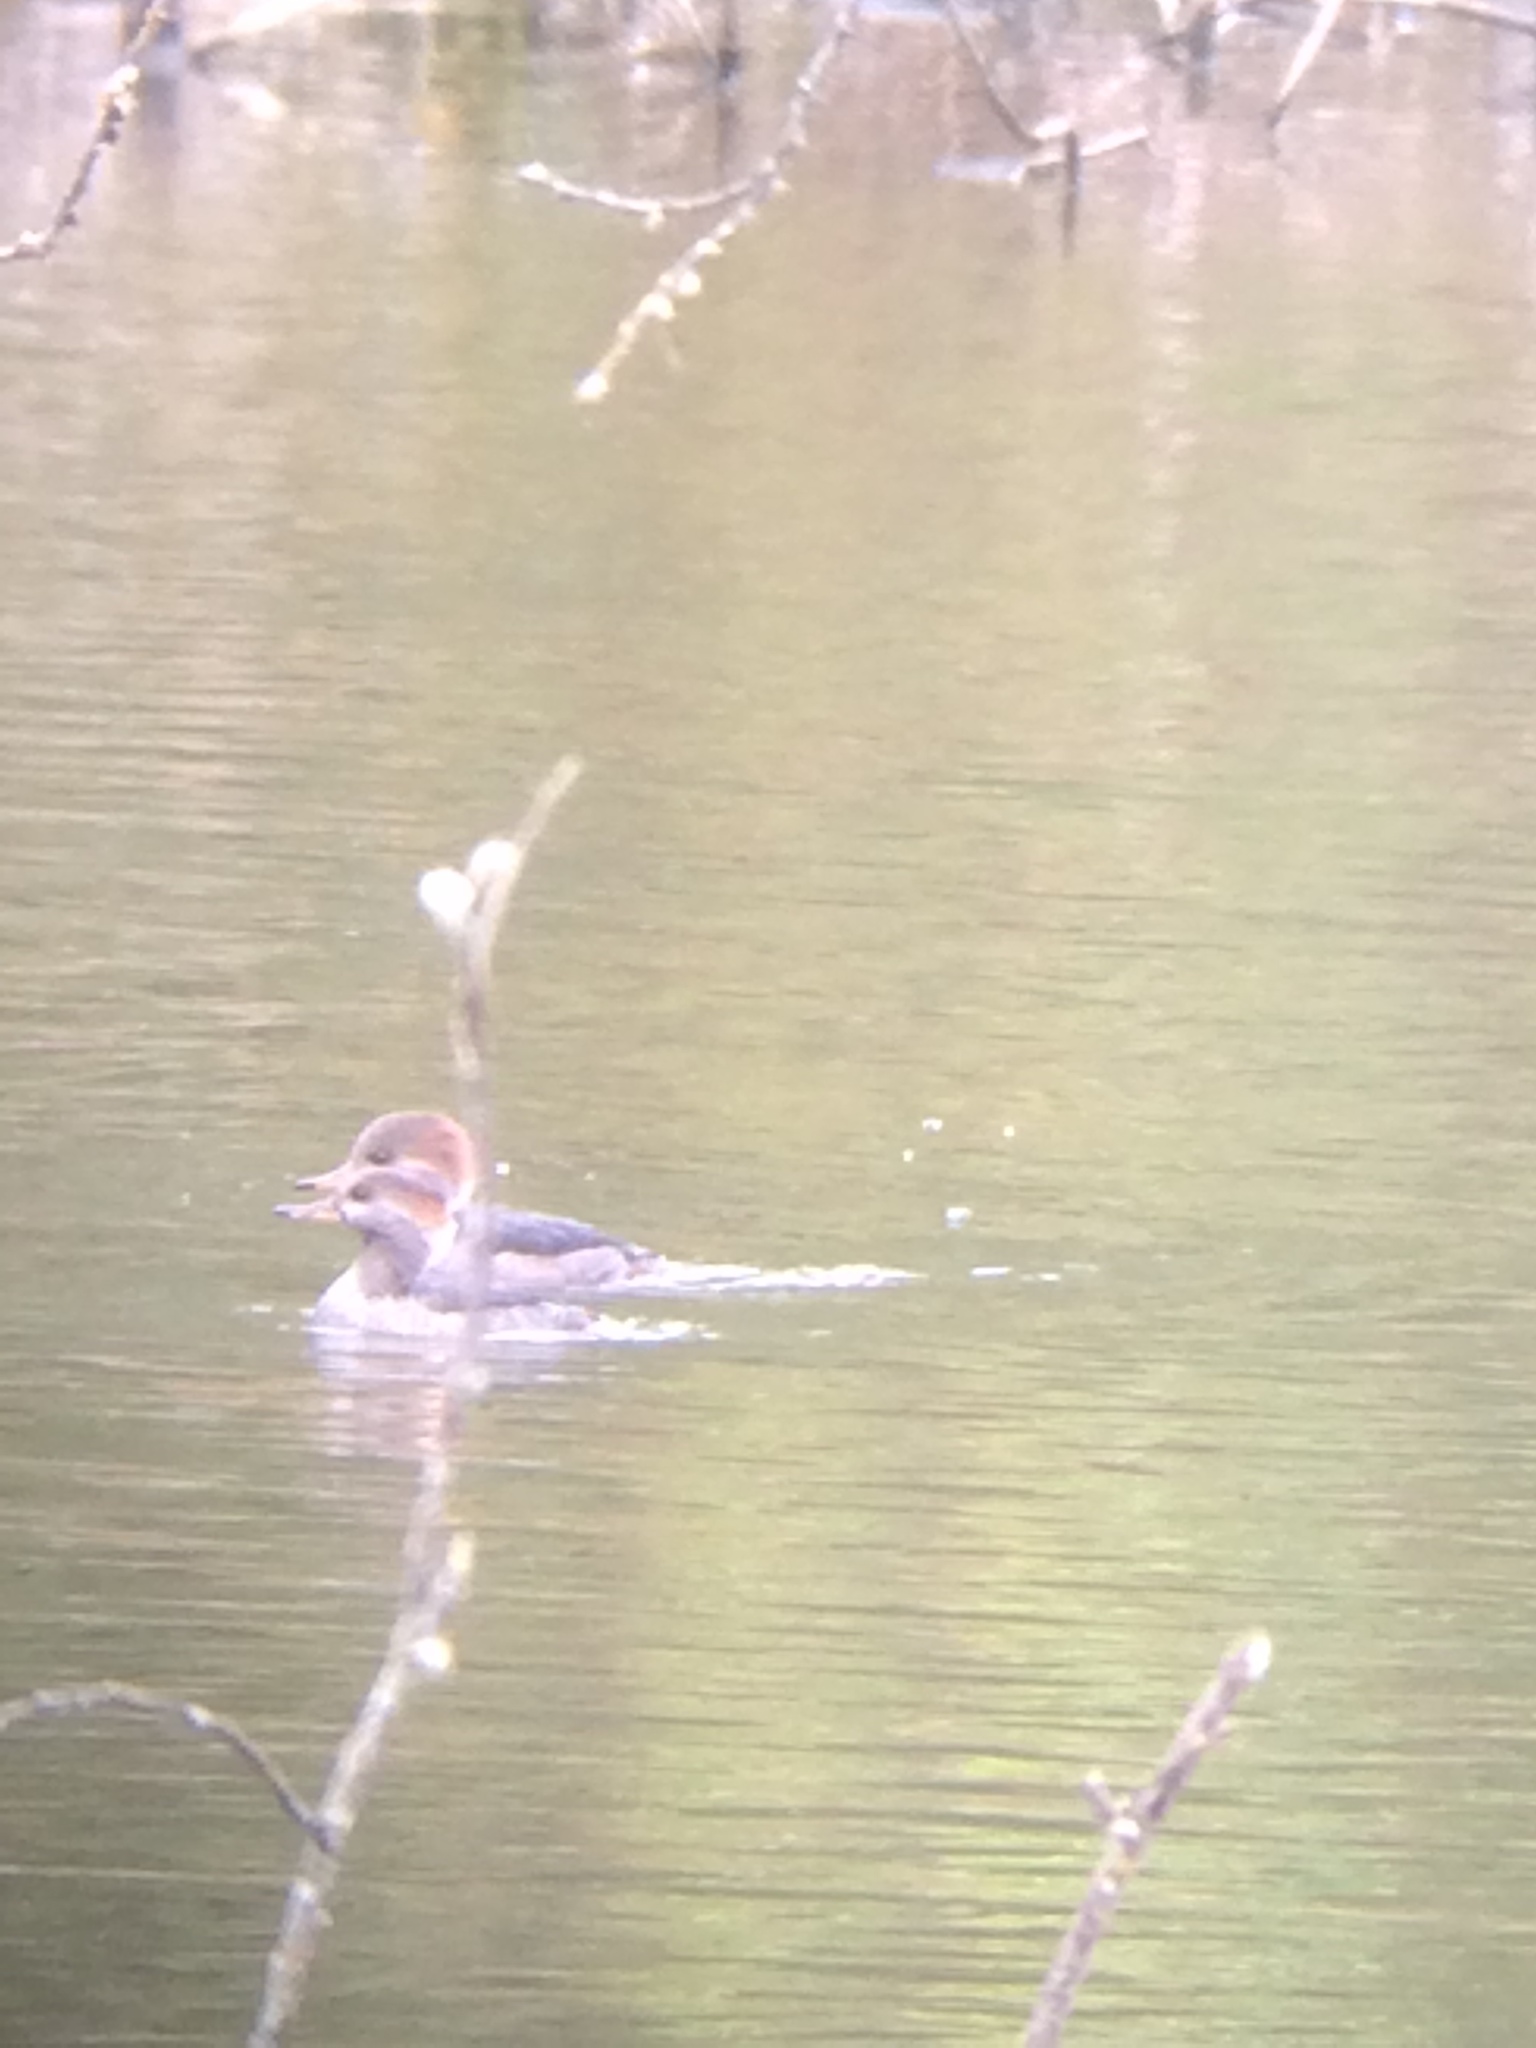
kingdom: Animalia
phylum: Chordata
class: Aves
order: Anseriformes
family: Anatidae
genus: Lophodytes
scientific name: Lophodytes cucullatus
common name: Hooded merganser
